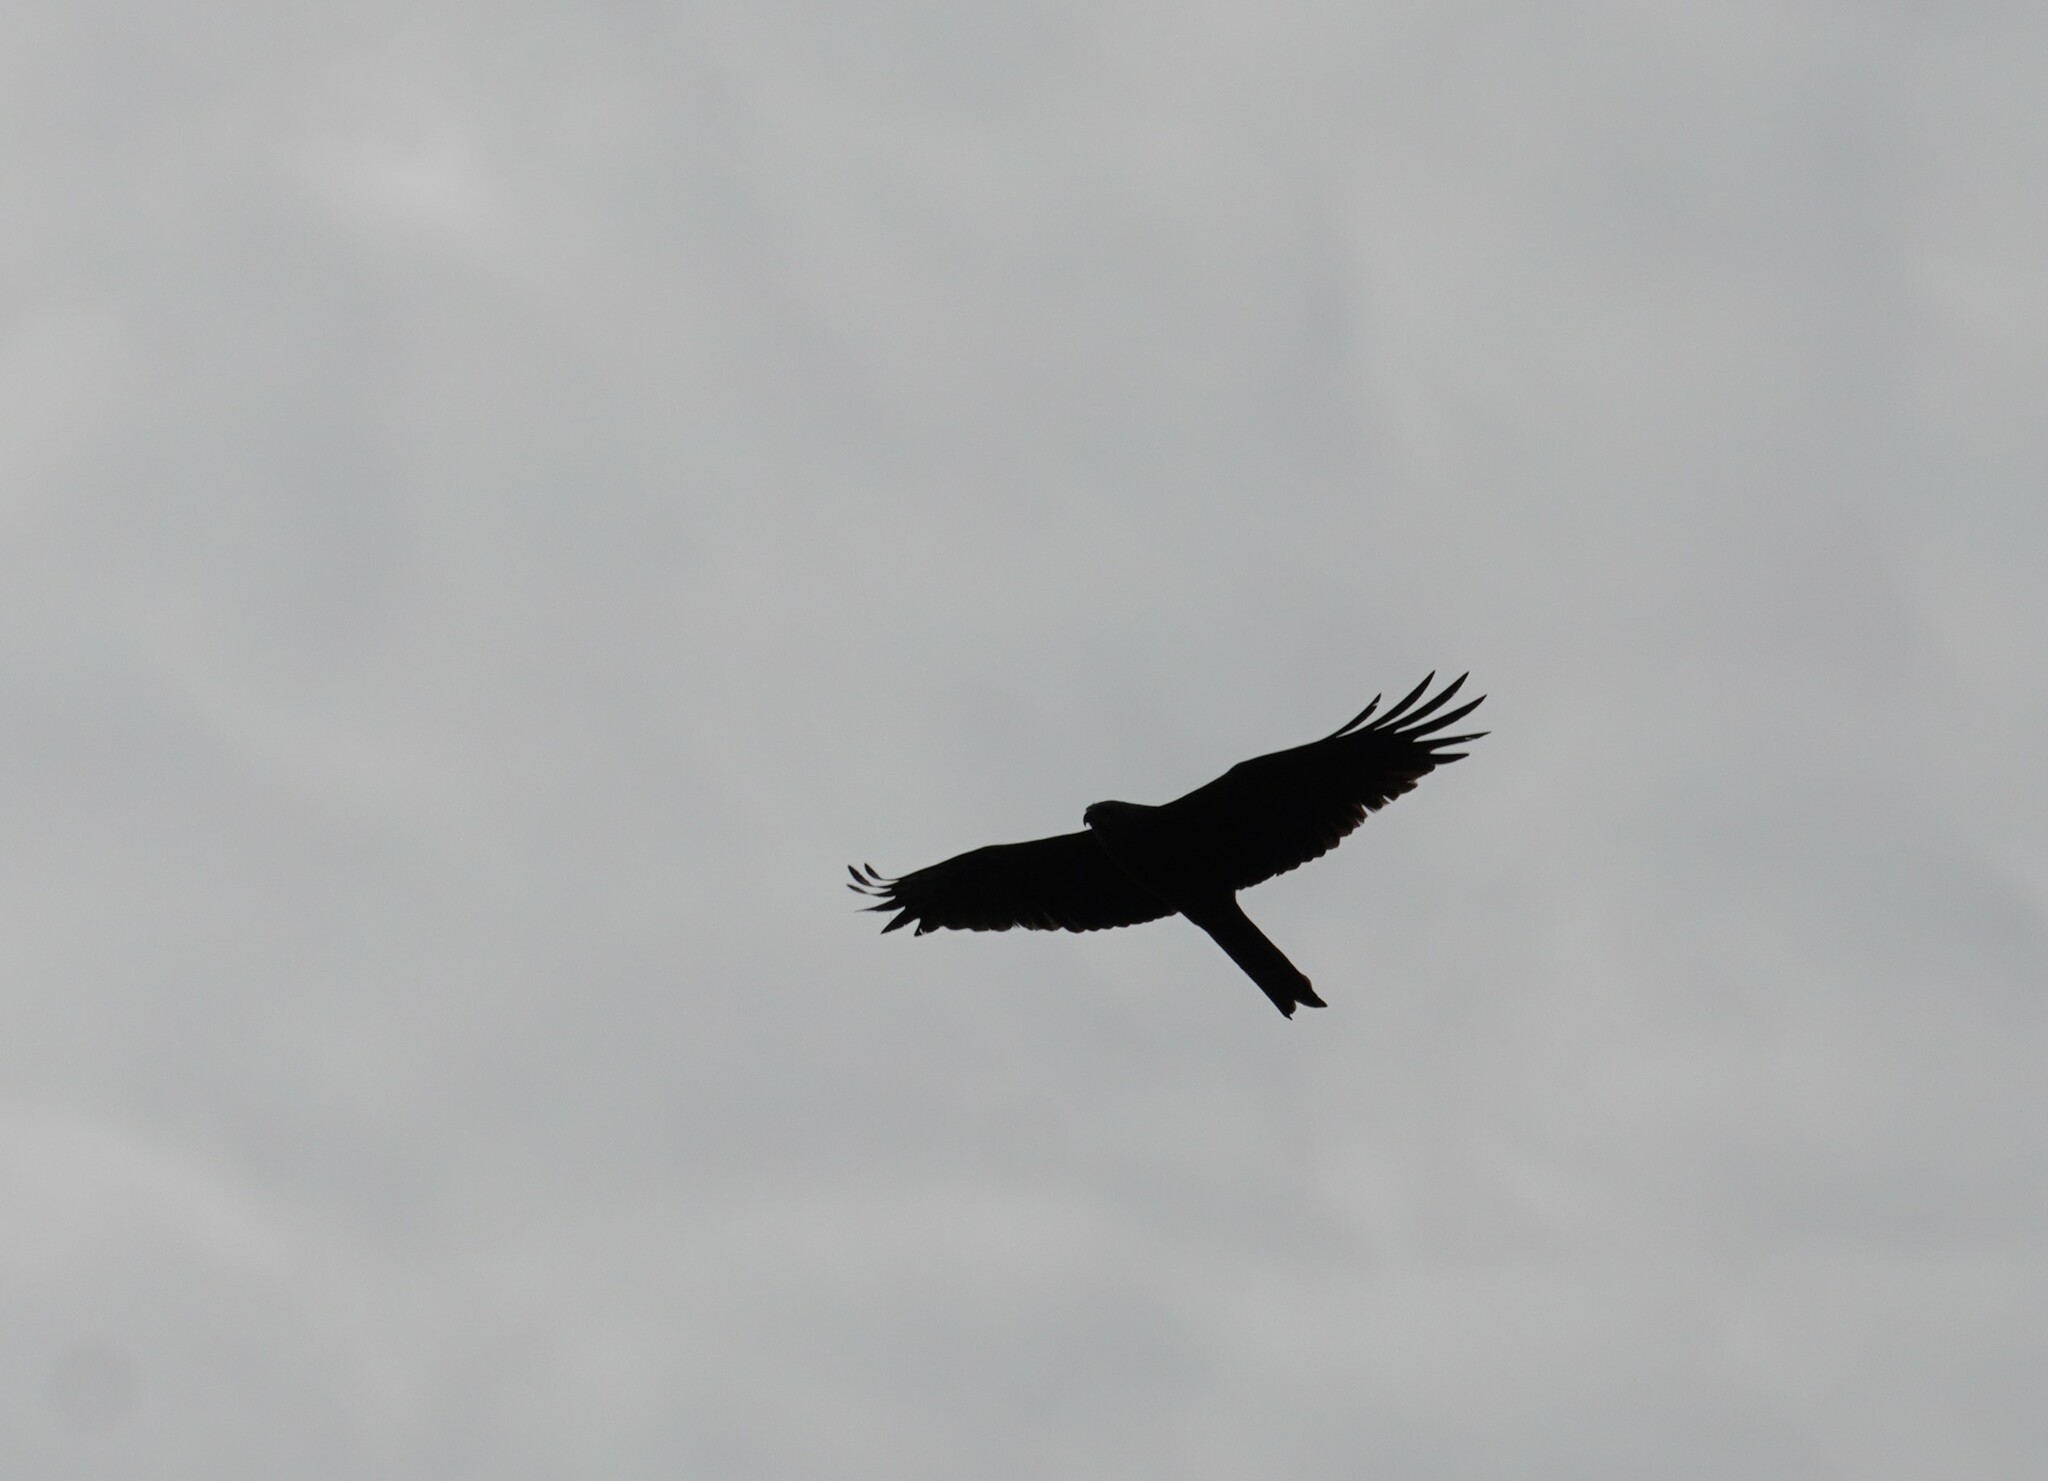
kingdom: Animalia
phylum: Chordata
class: Aves
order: Accipitriformes
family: Accipitridae
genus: Milvus
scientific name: Milvus migrans
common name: Black kite
